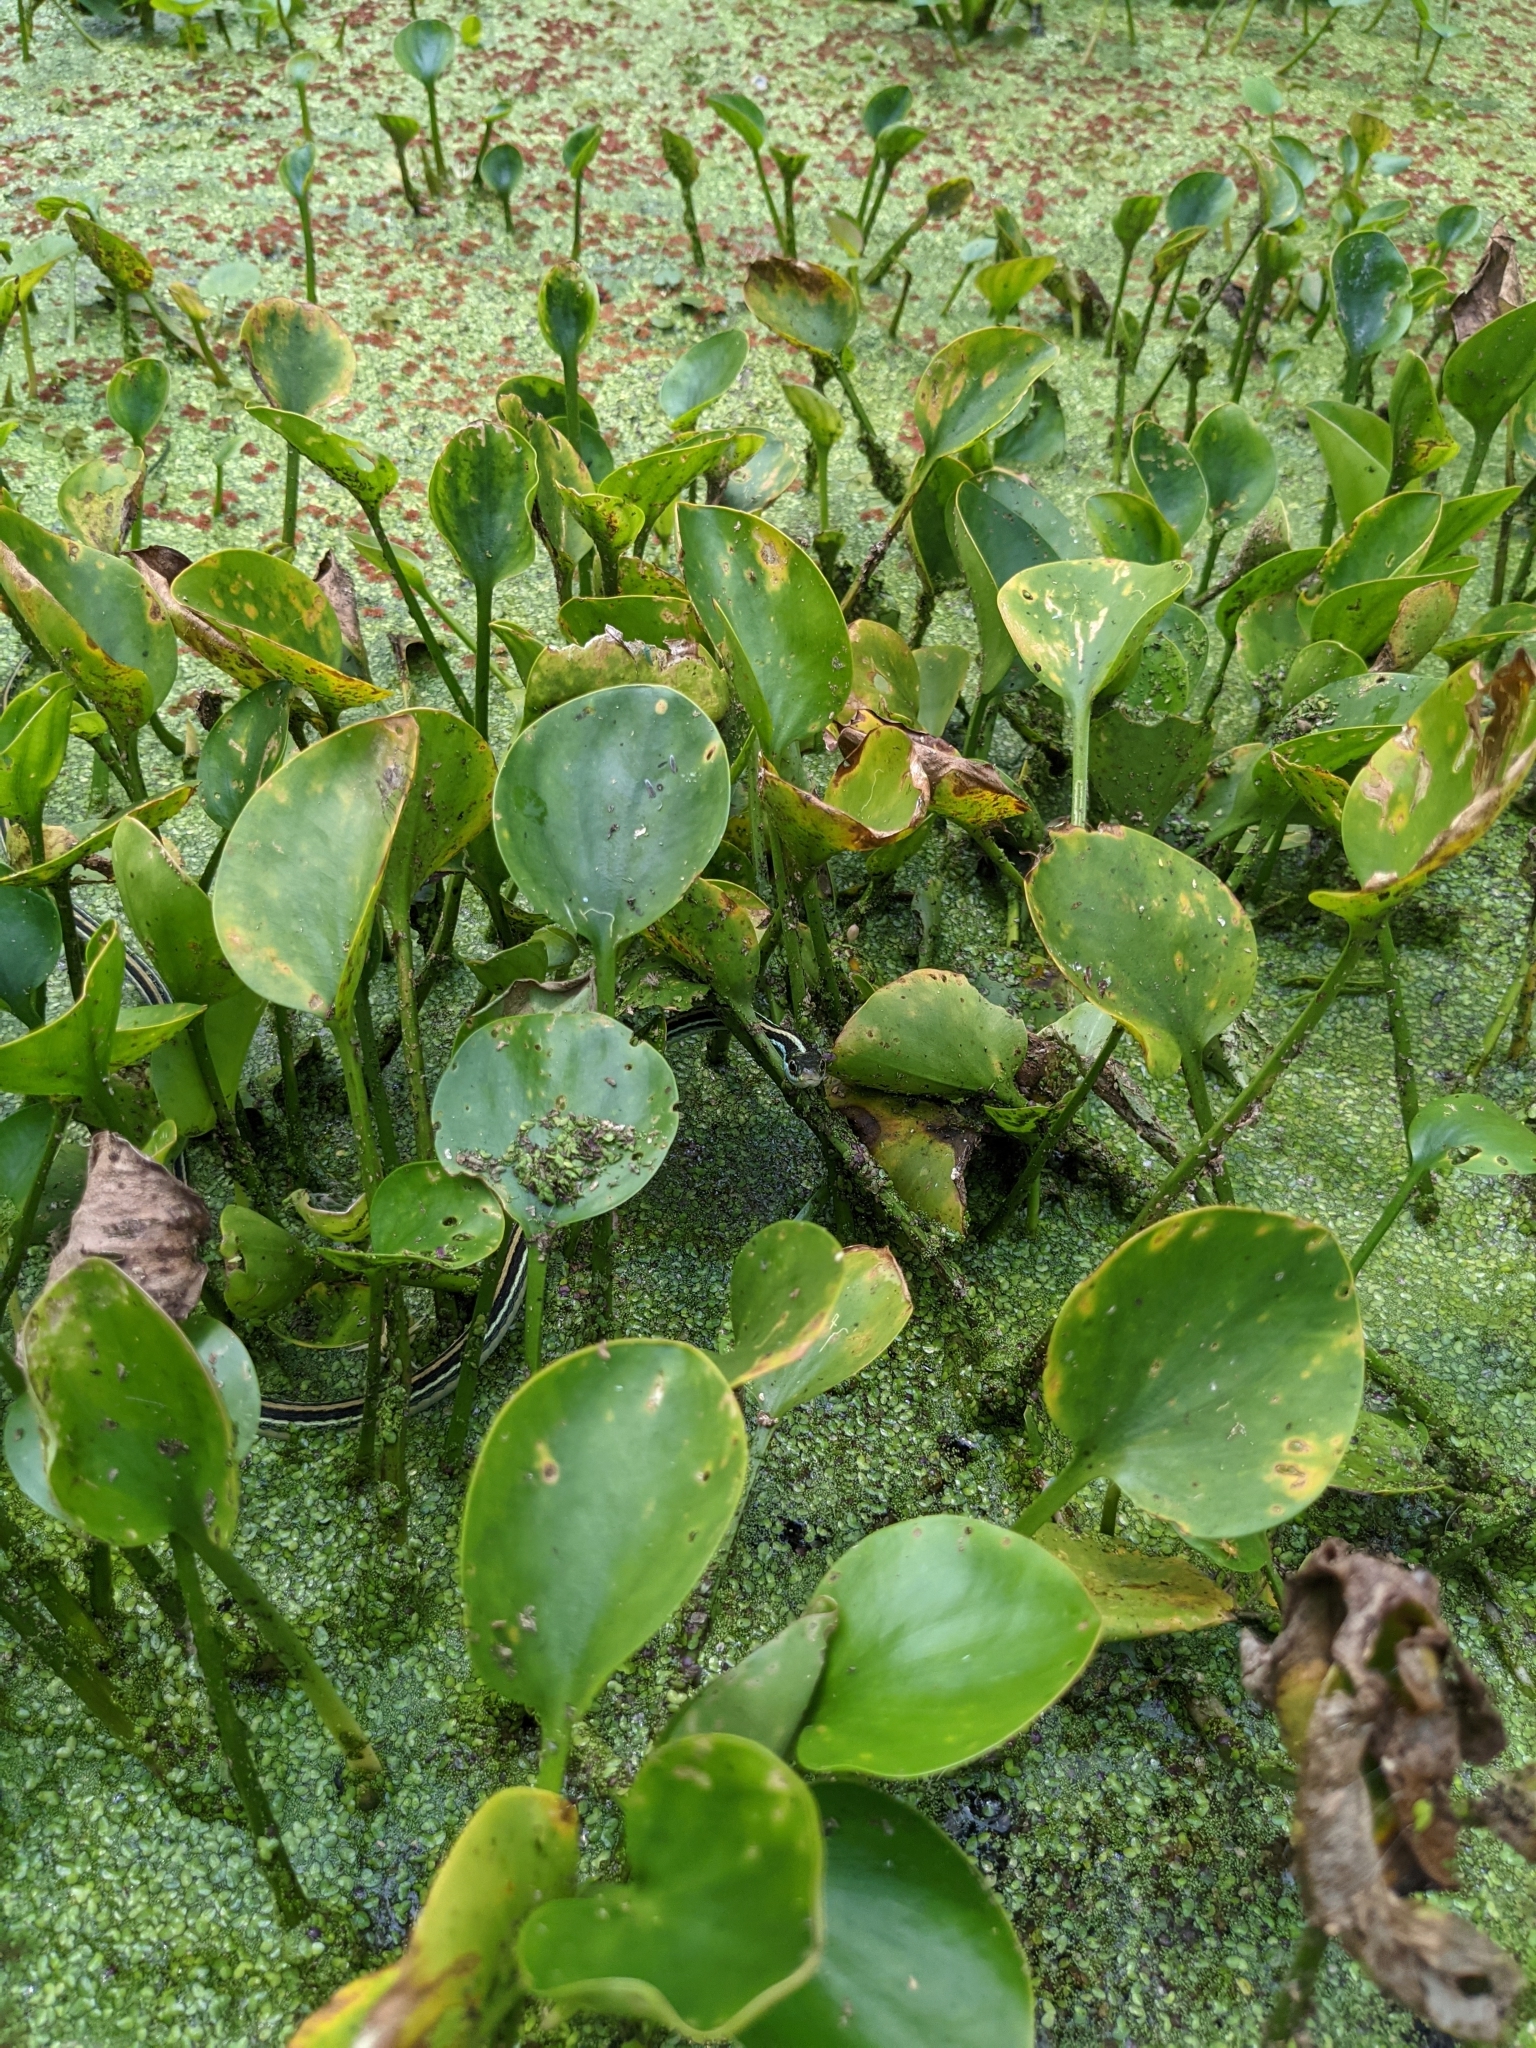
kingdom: Animalia
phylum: Chordata
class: Squamata
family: Colubridae
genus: Thamnophis
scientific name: Thamnophis proximus
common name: Western ribbon snake
